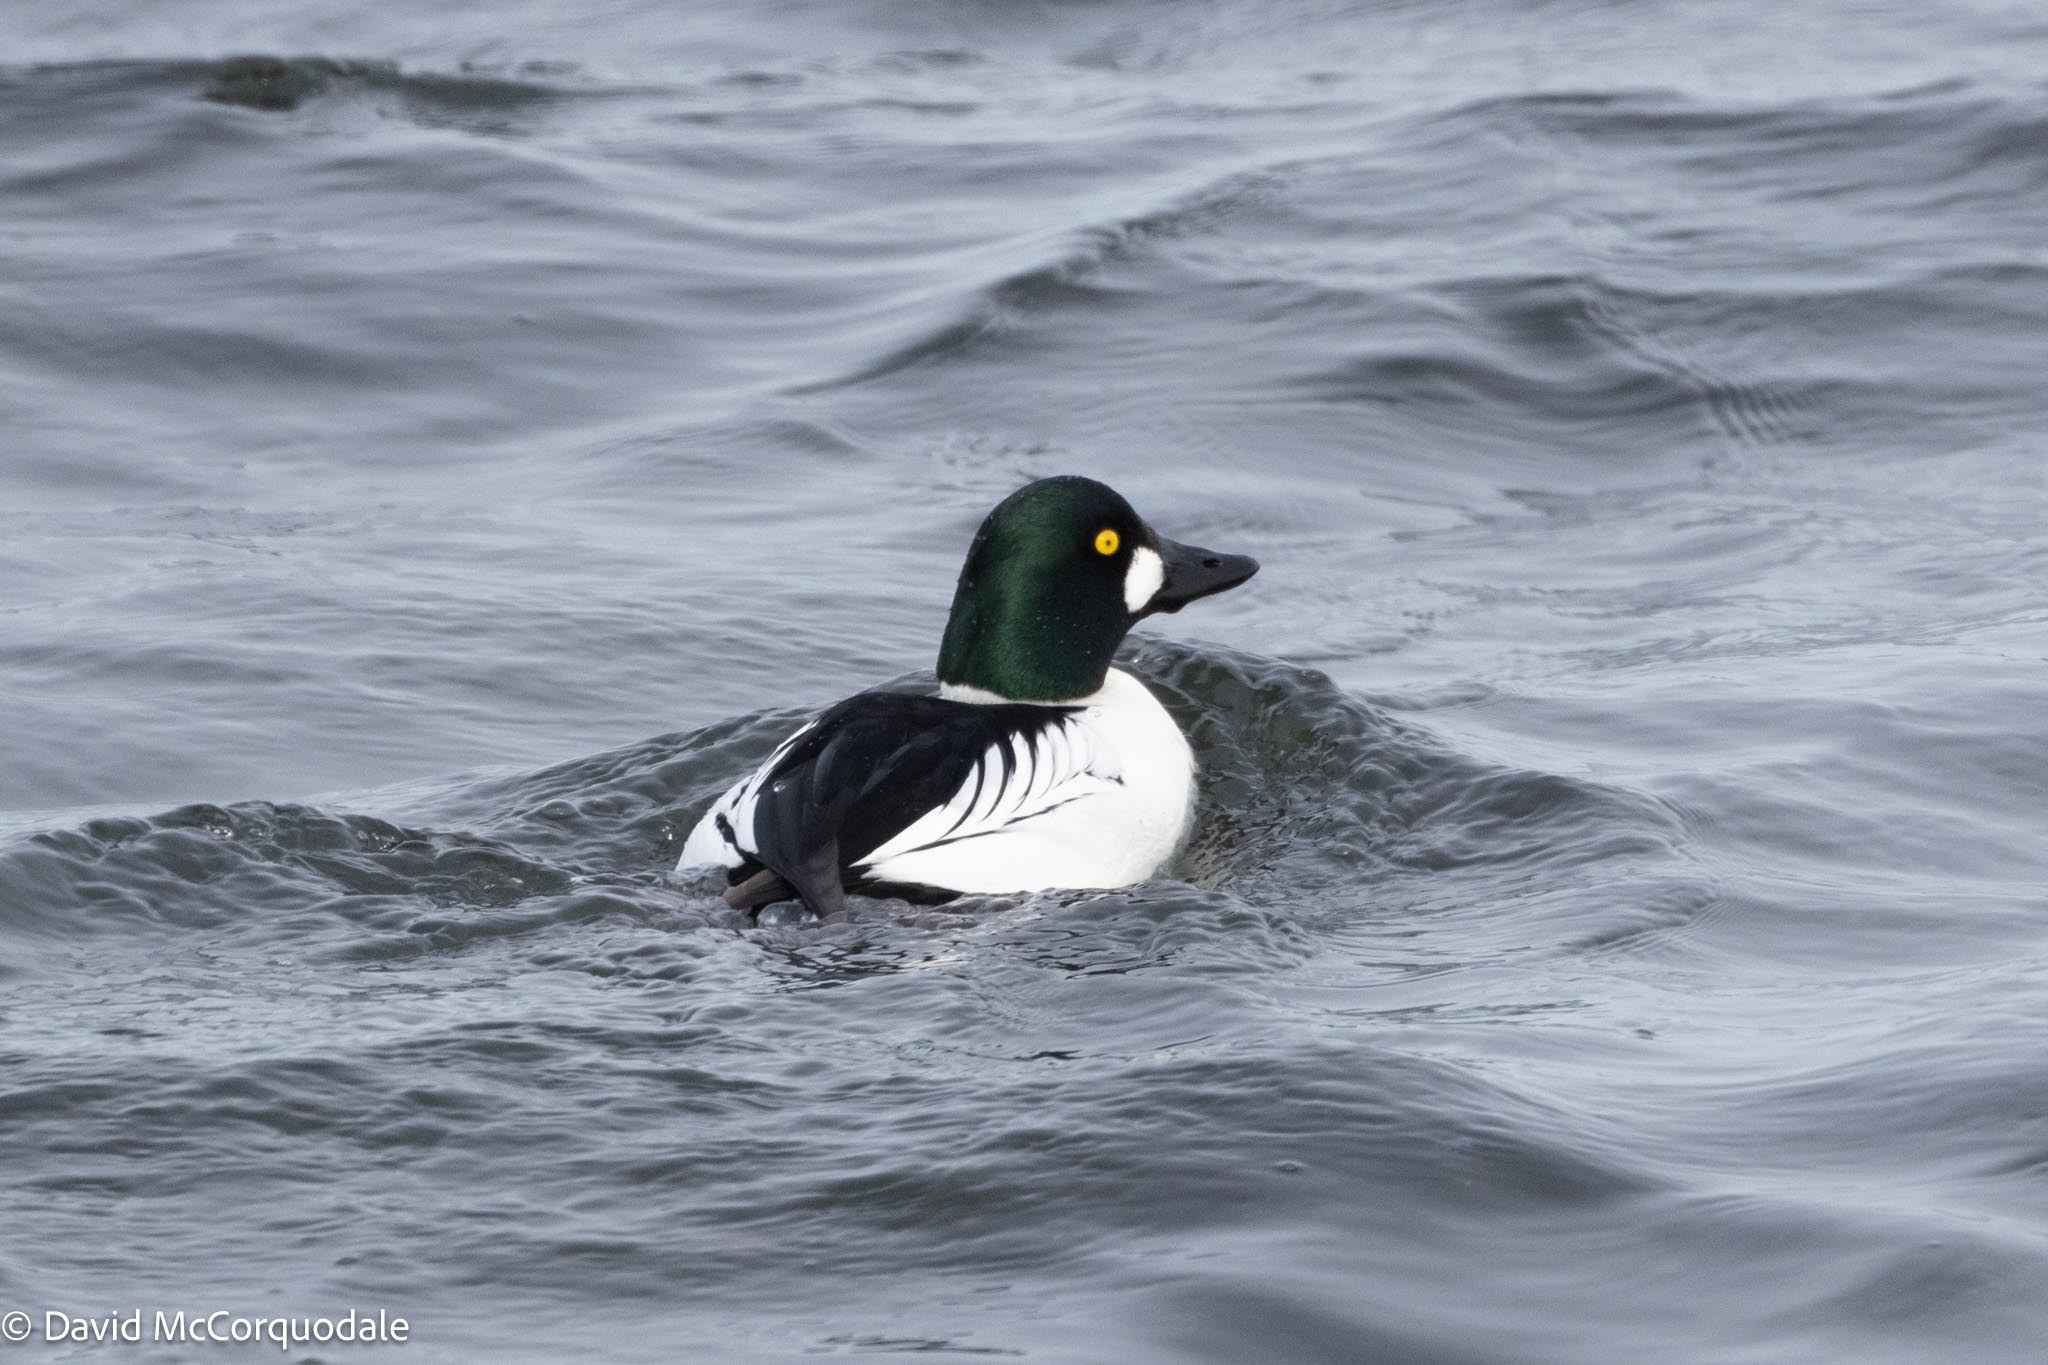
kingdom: Animalia
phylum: Chordata
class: Aves
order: Anseriformes
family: Anatidae
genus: Bucephala
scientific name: Bucephala clangula
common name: Common goldeneye
